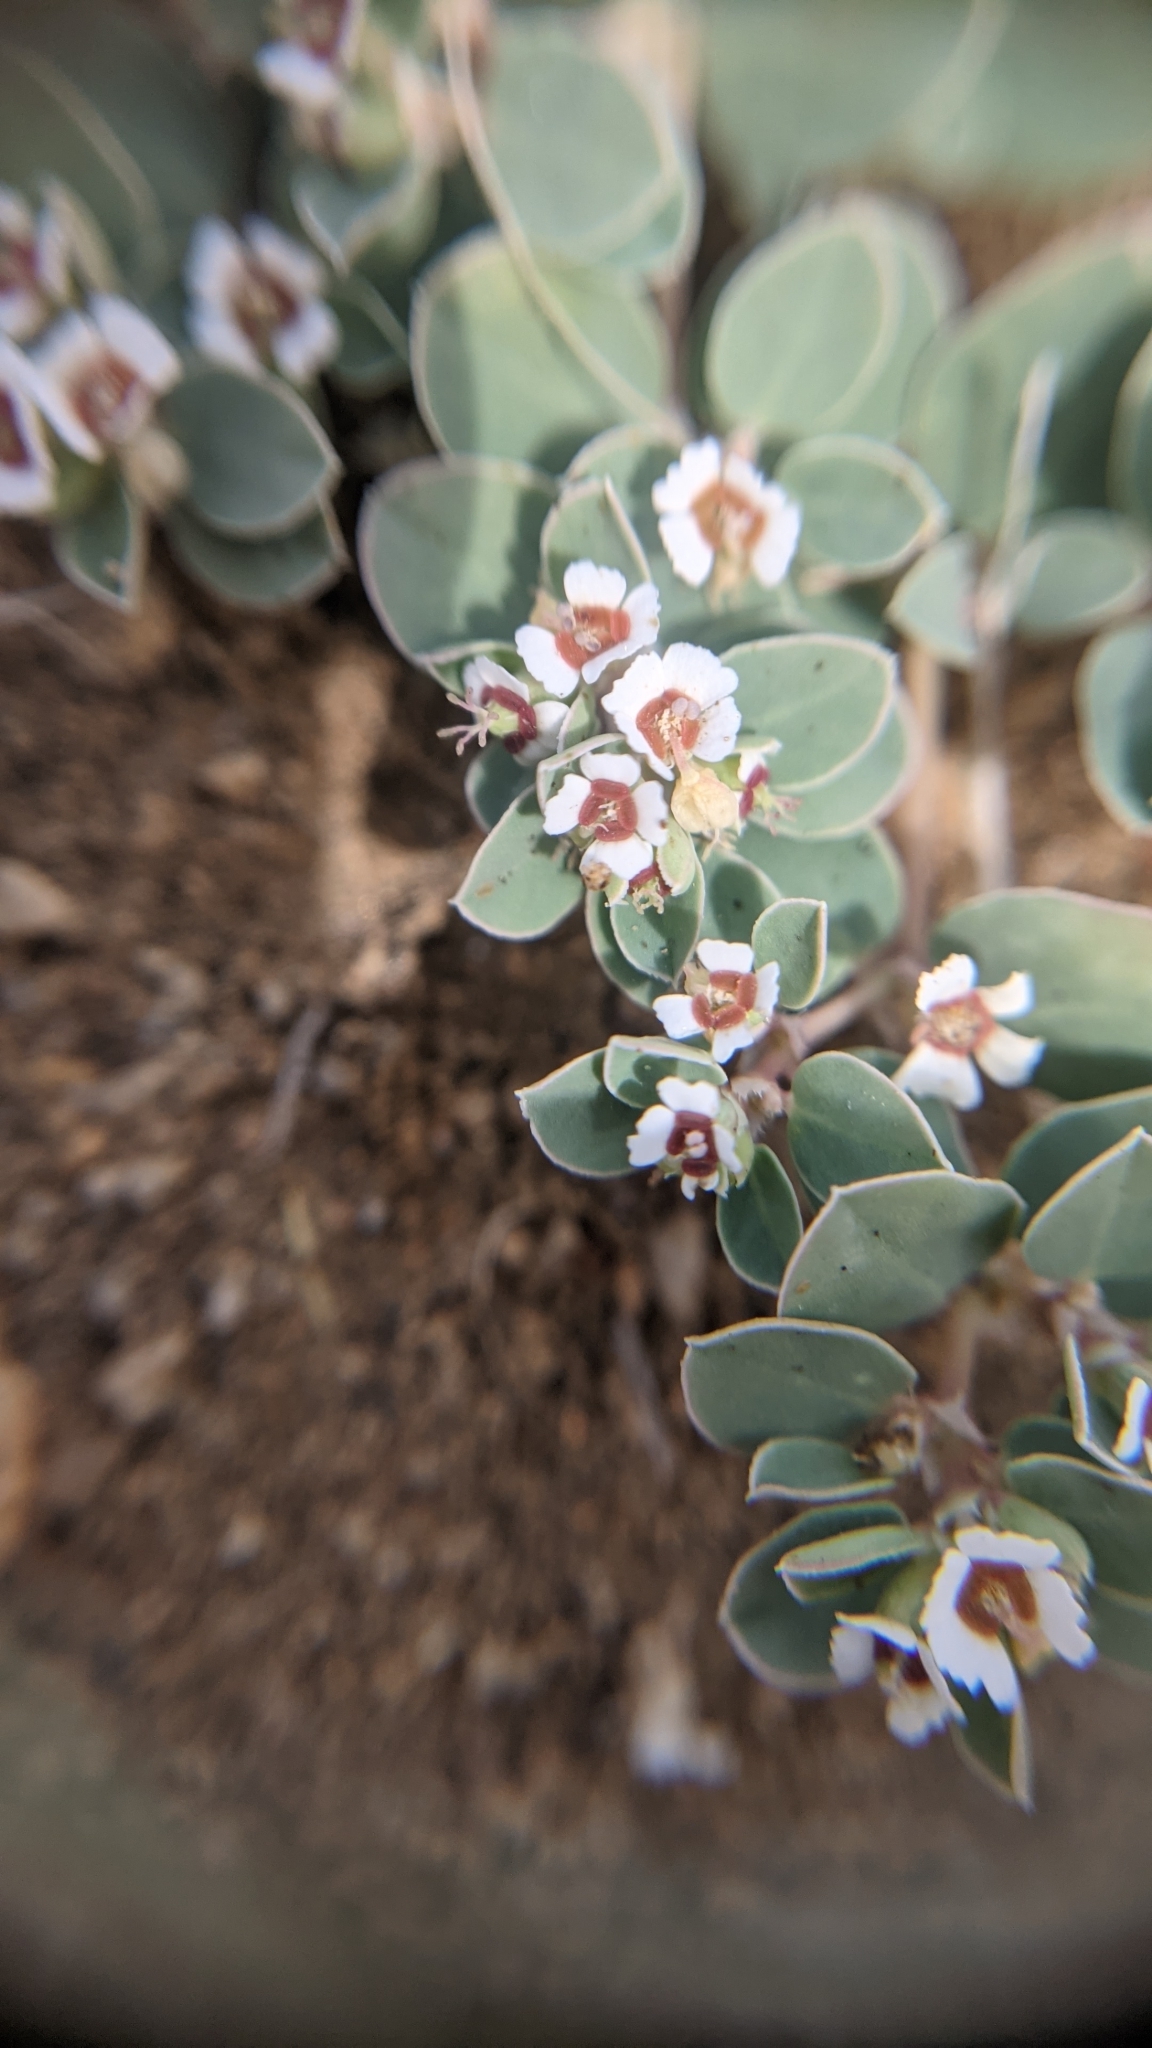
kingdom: Plantae
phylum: Tracheophyta
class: Magnoliopsida
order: Malpighiales
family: Euphorbiaceae
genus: Euphorbia
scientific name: Euphorbia albomarginata
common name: Whitemargin sandmat
